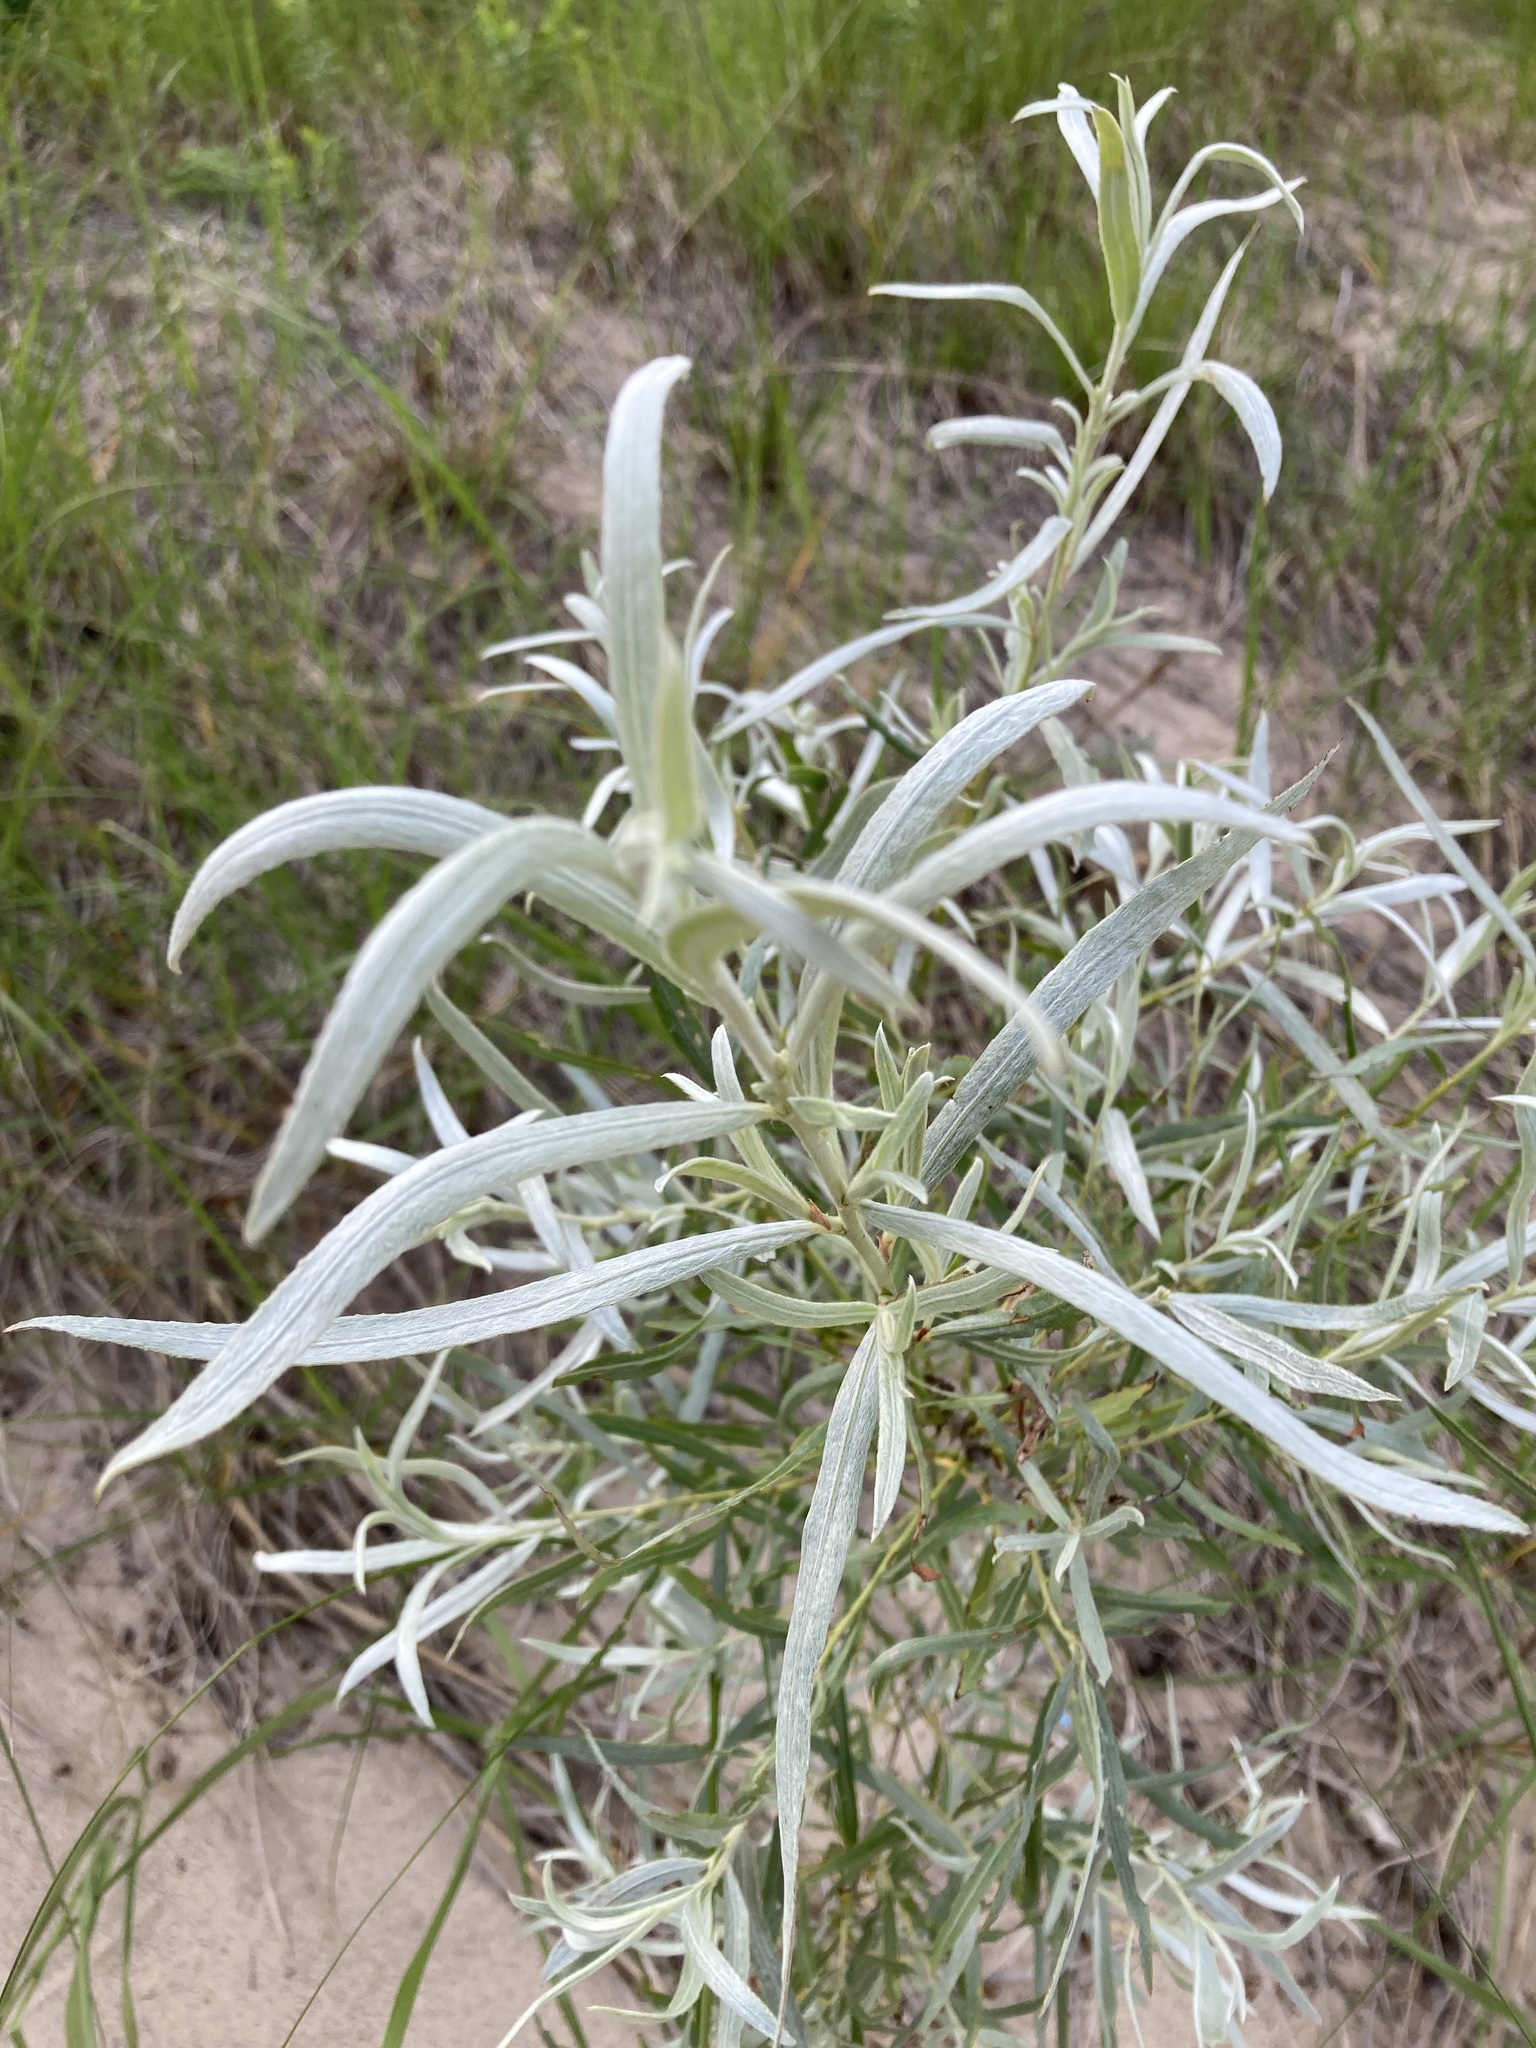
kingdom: Plantae
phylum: Tracheophyta
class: Magnoliopsida
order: Malpighiales
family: Salicaceae
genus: Salix
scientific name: Salix interior
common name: Sandbar willow
